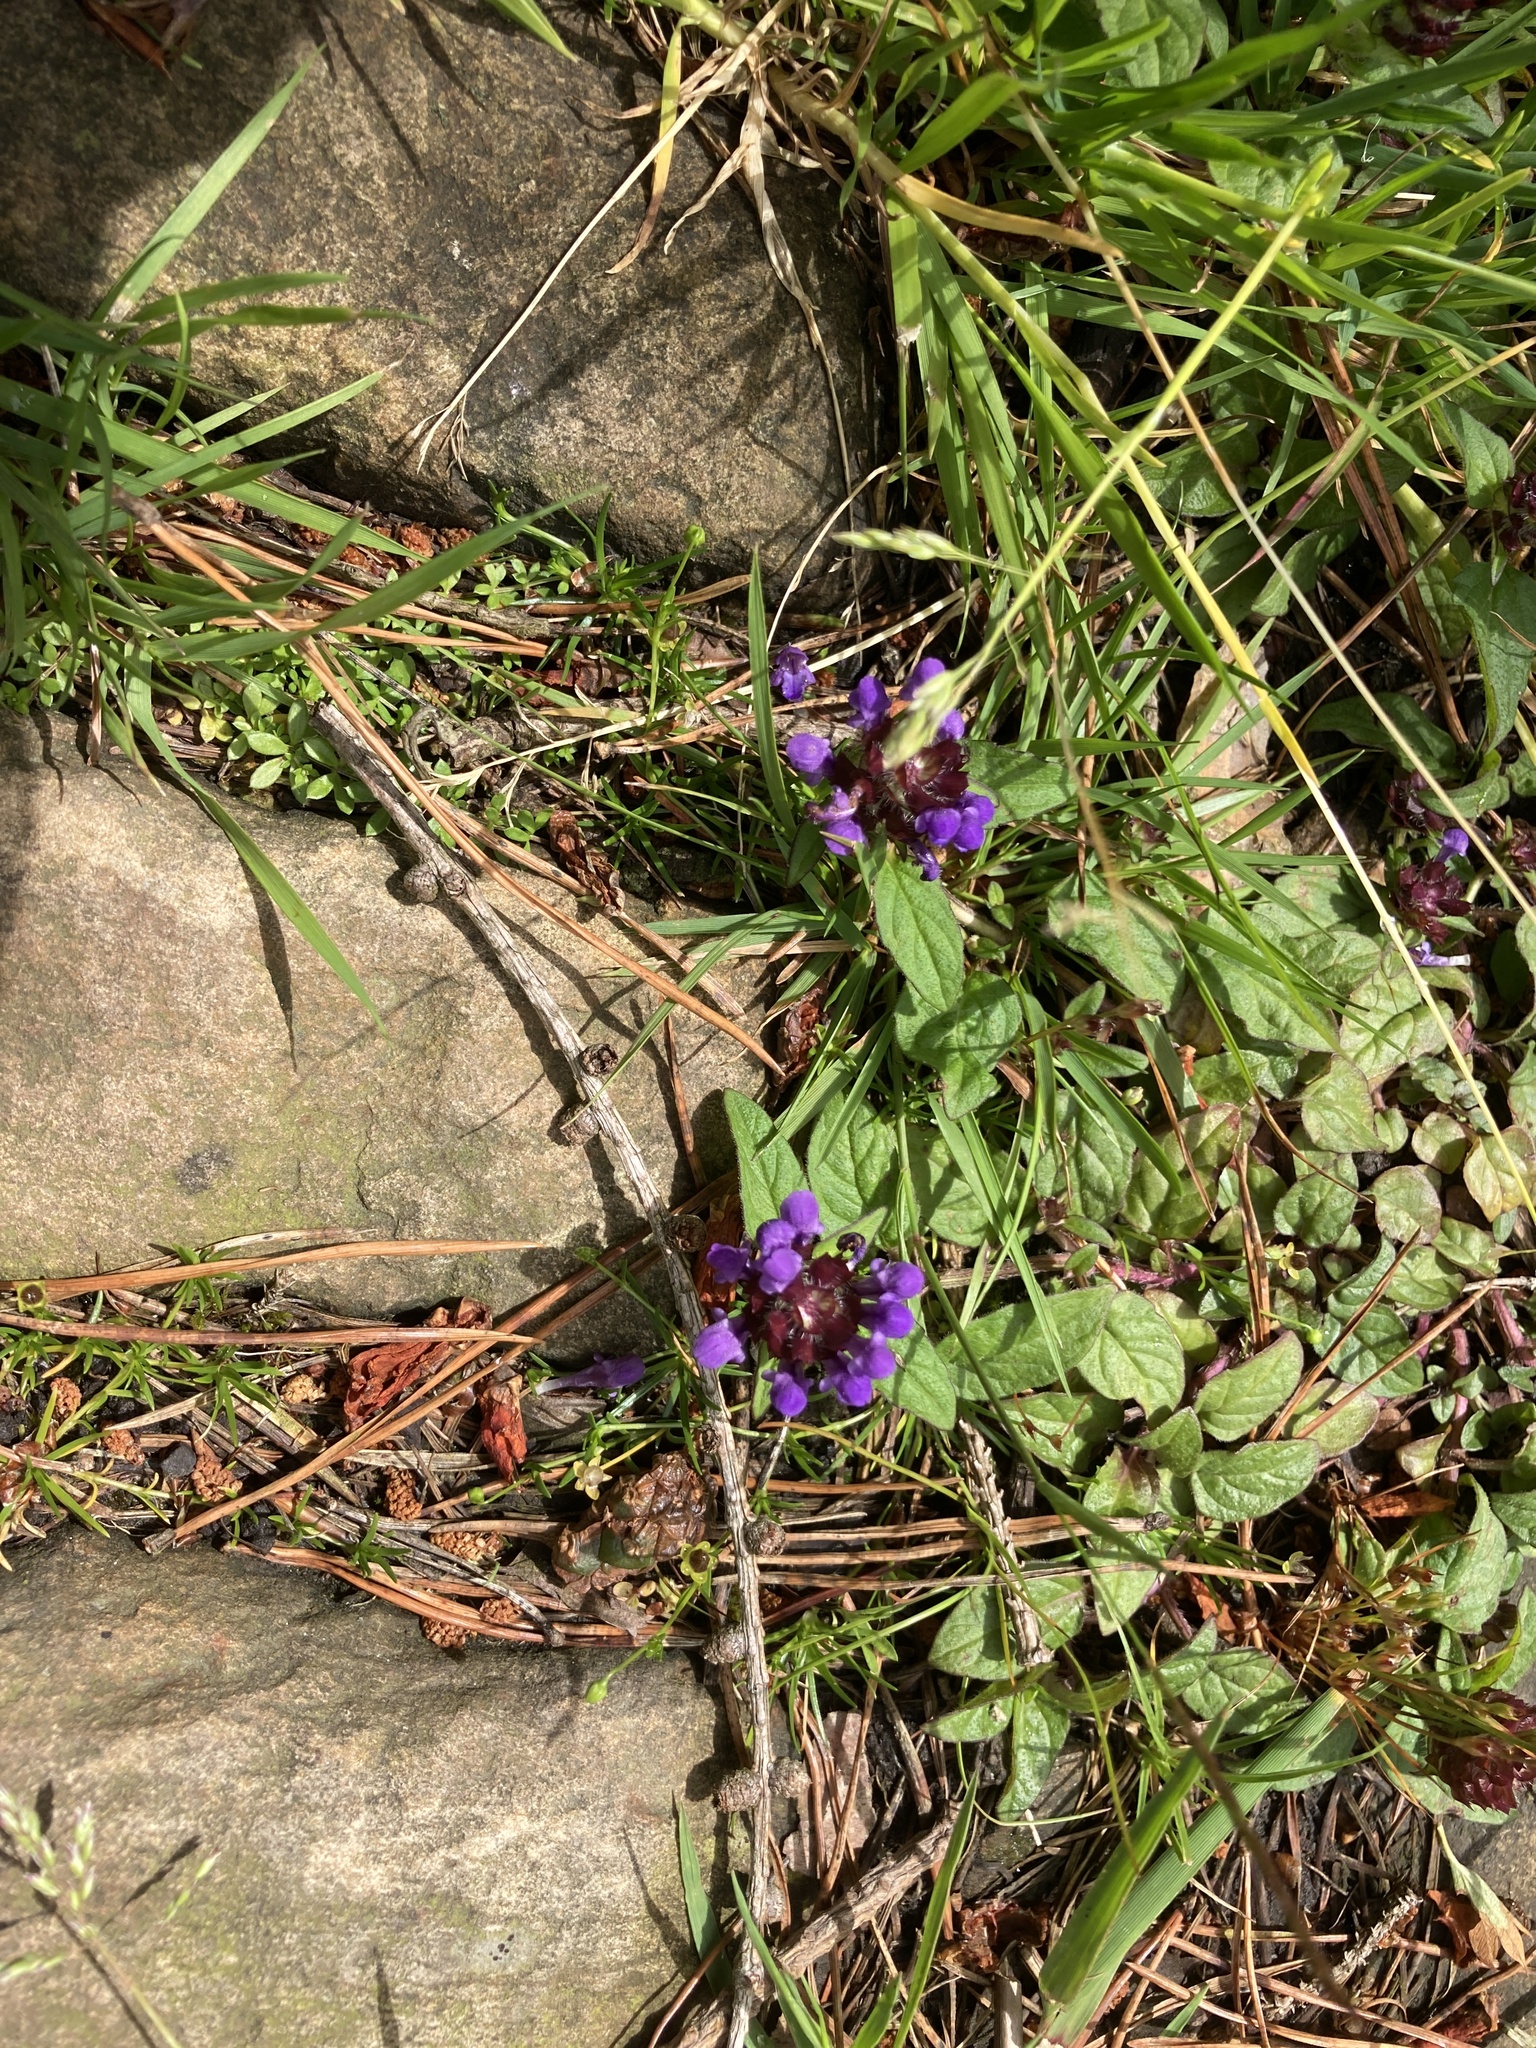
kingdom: Plantae
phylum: Tracheophyta
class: Magnoliopsida
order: Lamiales
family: Lamiaceae
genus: Prunella
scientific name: Prunella vulgaris
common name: Heal-all
